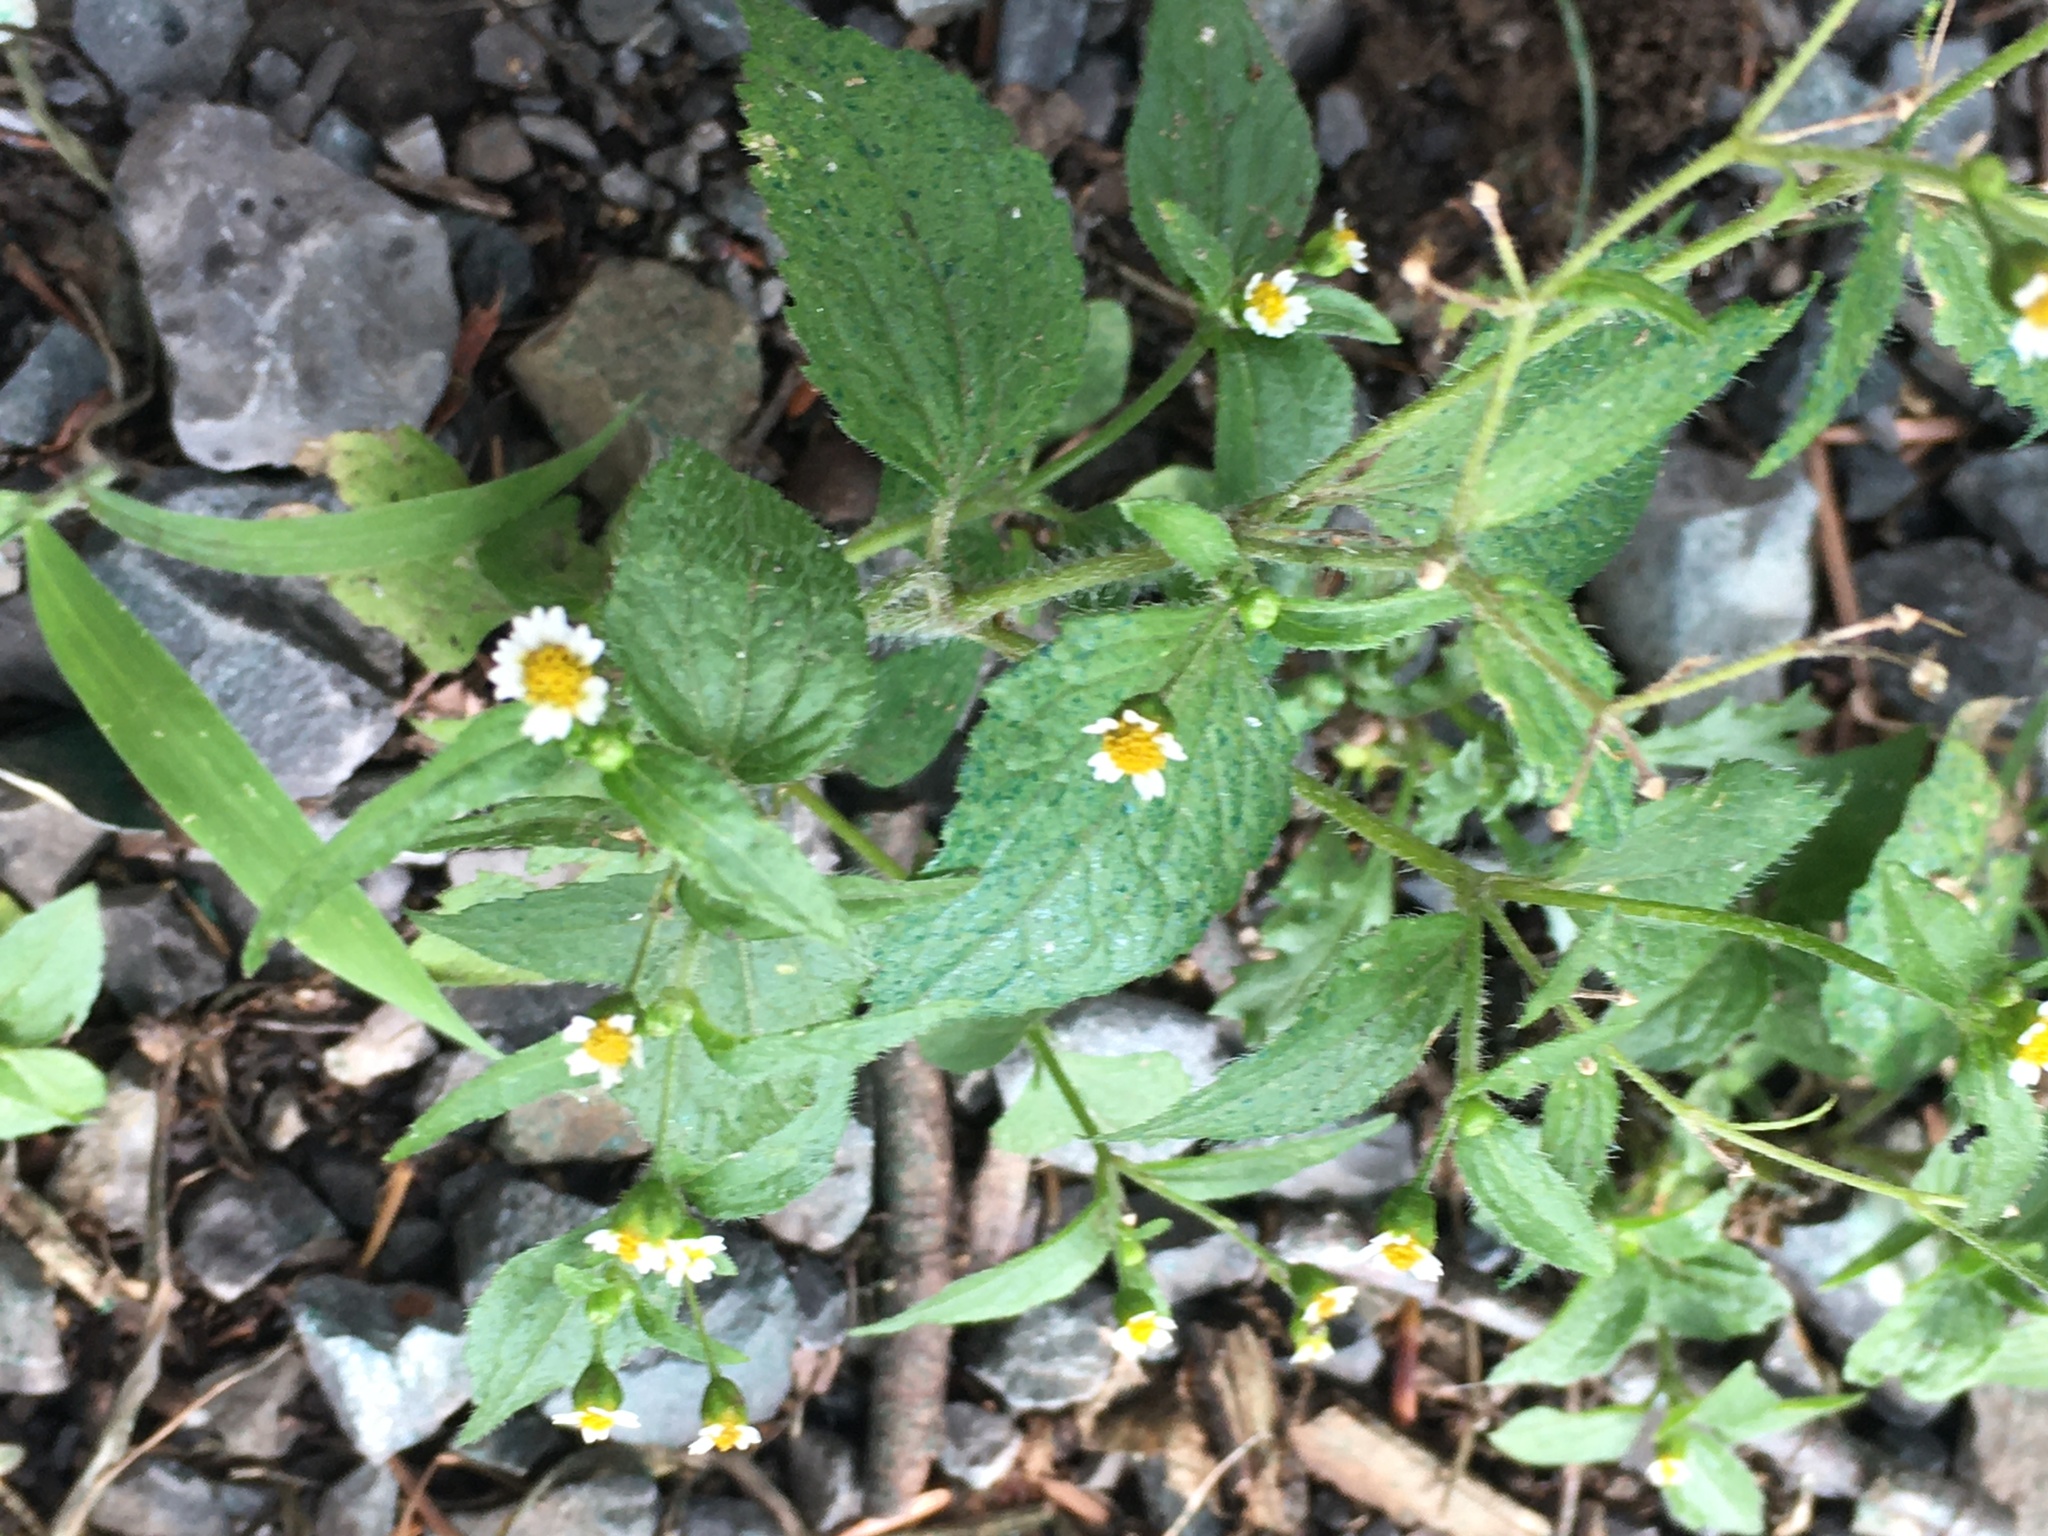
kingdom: Plantae
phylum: Tracheophyta
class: Magnoliopsida
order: Asterales
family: Asteraceae
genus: Galinsoga
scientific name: Galinsoga quadriradiata
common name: Shaggy soldier
